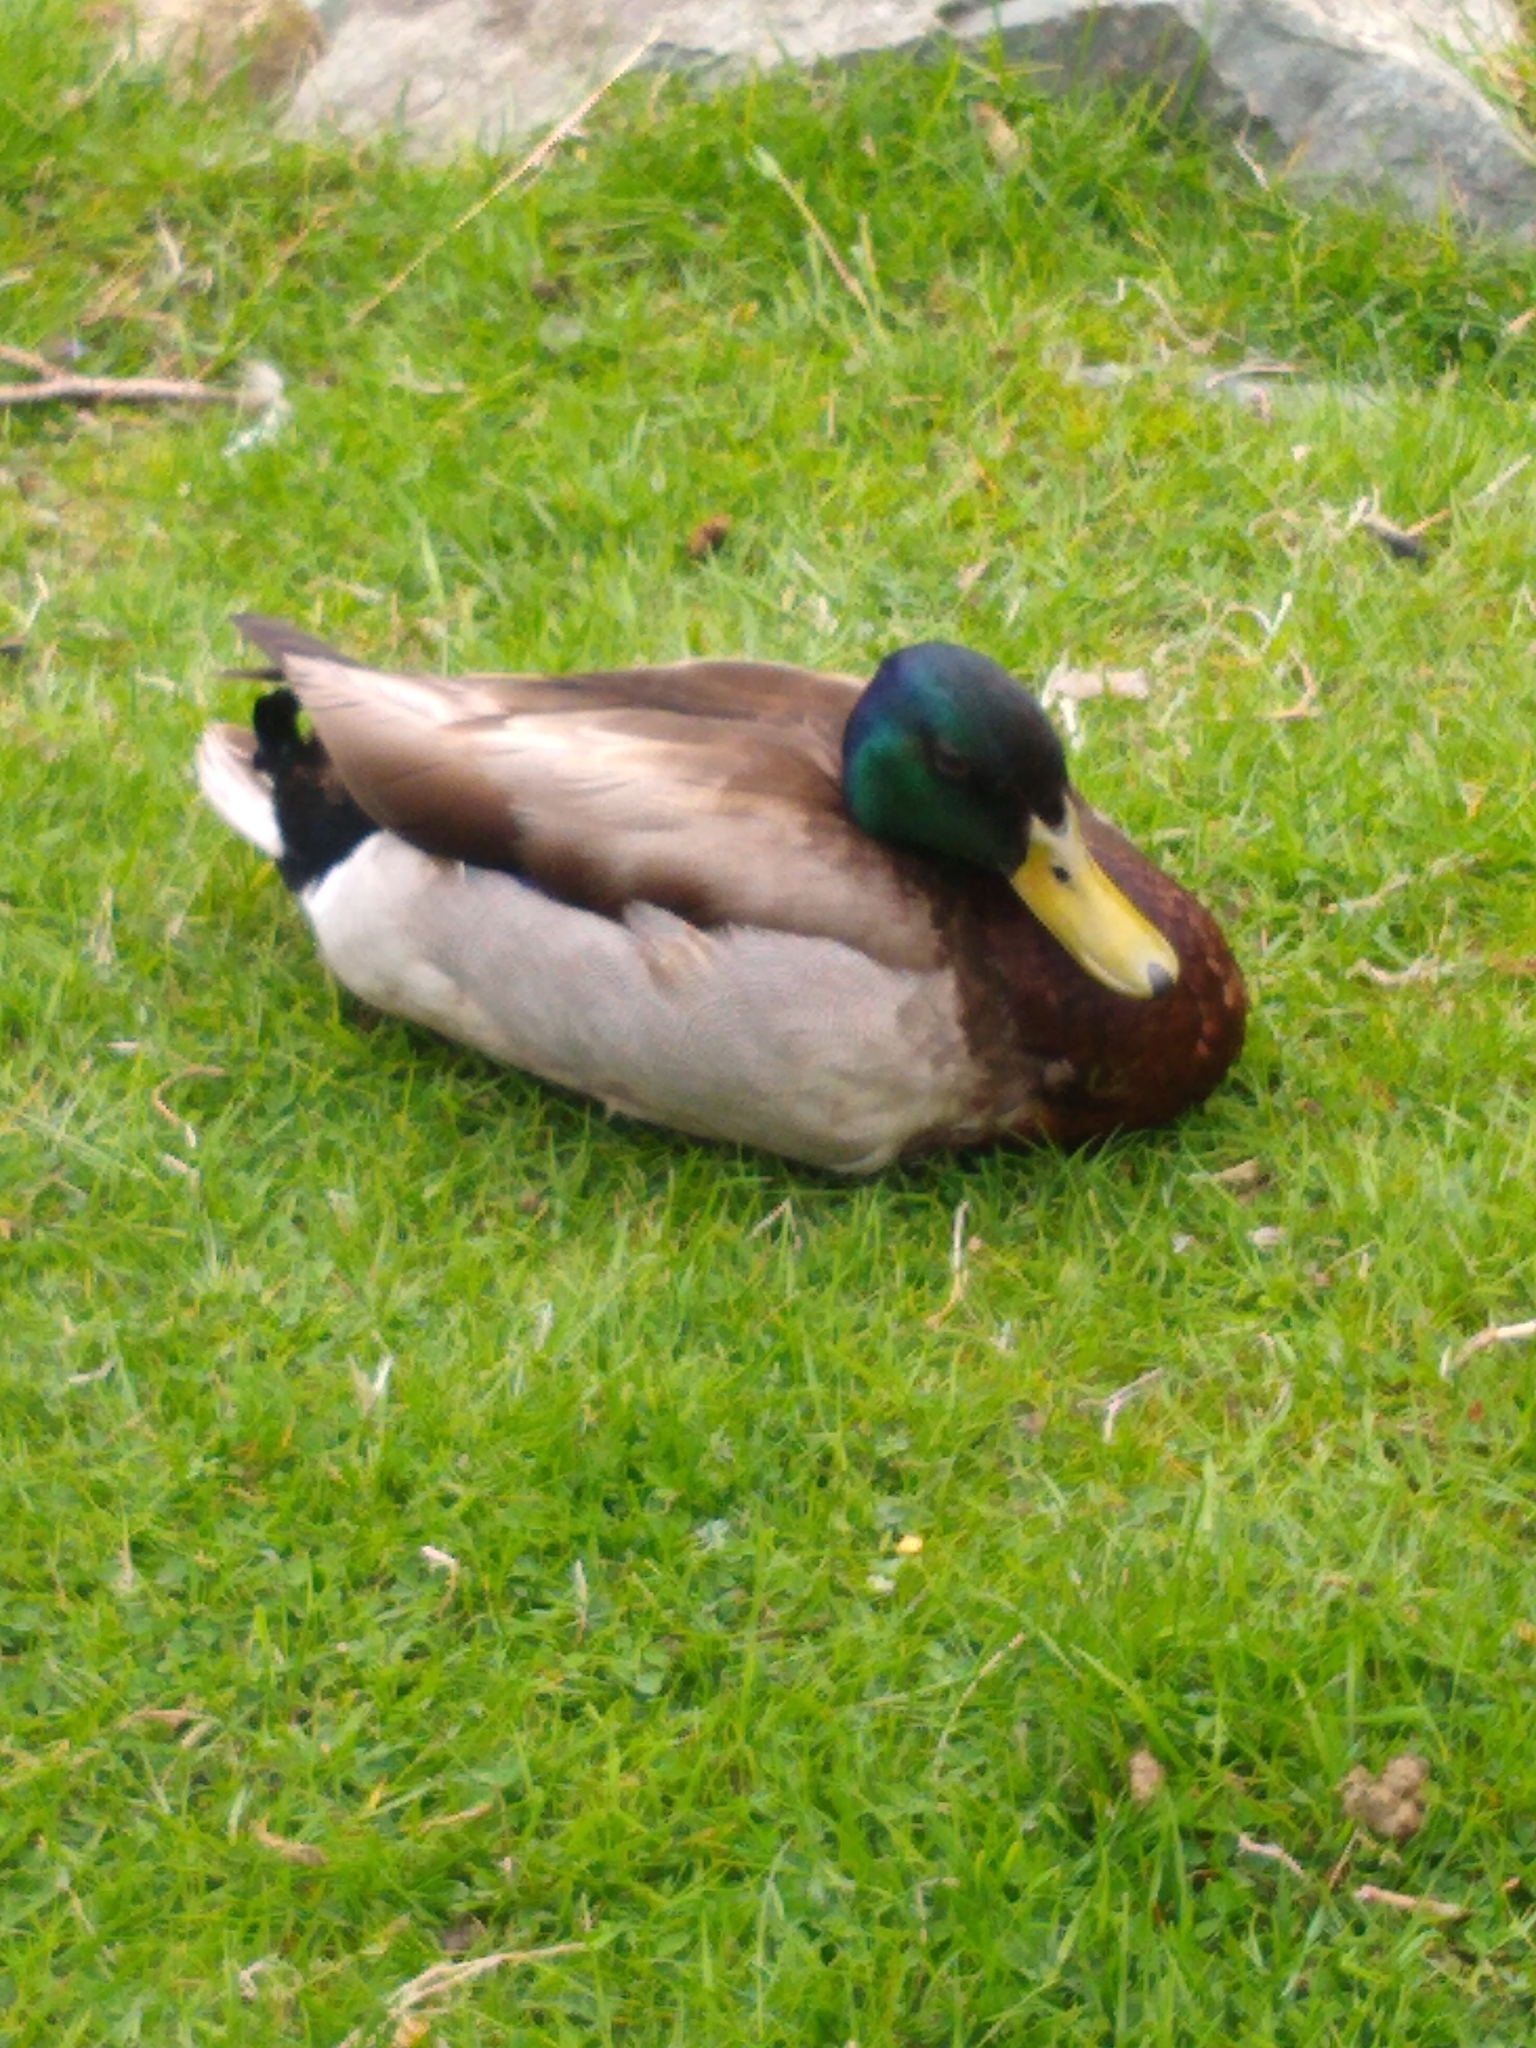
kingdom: Animalia
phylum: Chordata
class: Aves
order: Anseriformes
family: Anatidae
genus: Anas
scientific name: Anas platyrhynchos
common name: Mallard
